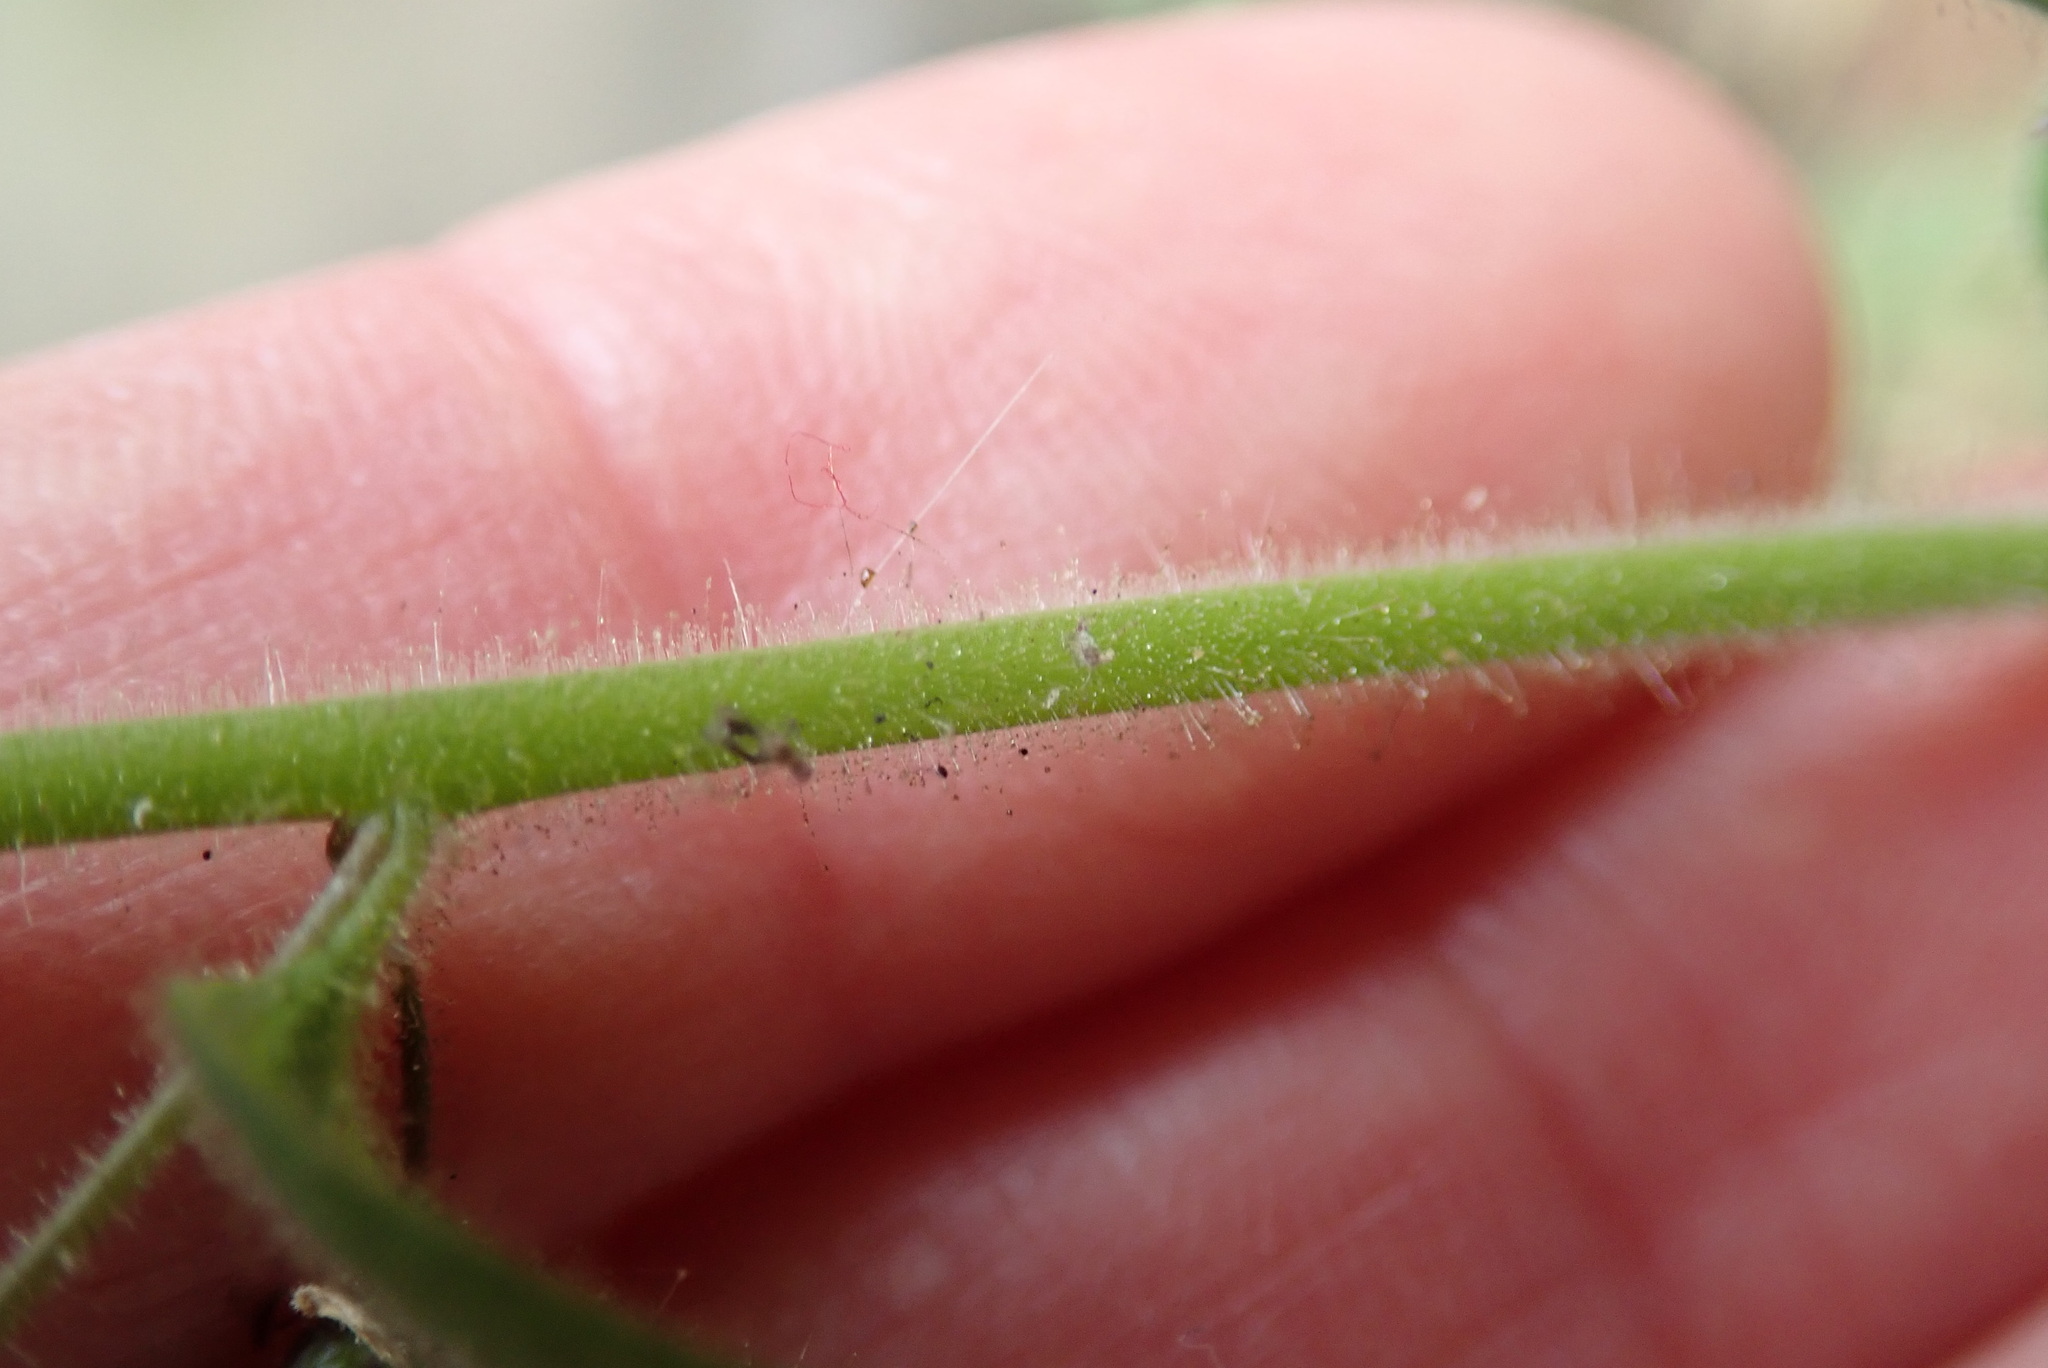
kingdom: Plantae
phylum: Tracheophyta
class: Magnoliopsida
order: Lamiales
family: Plantaginaceae
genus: Sairocarpus
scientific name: Sairocarpus nuttallianus
